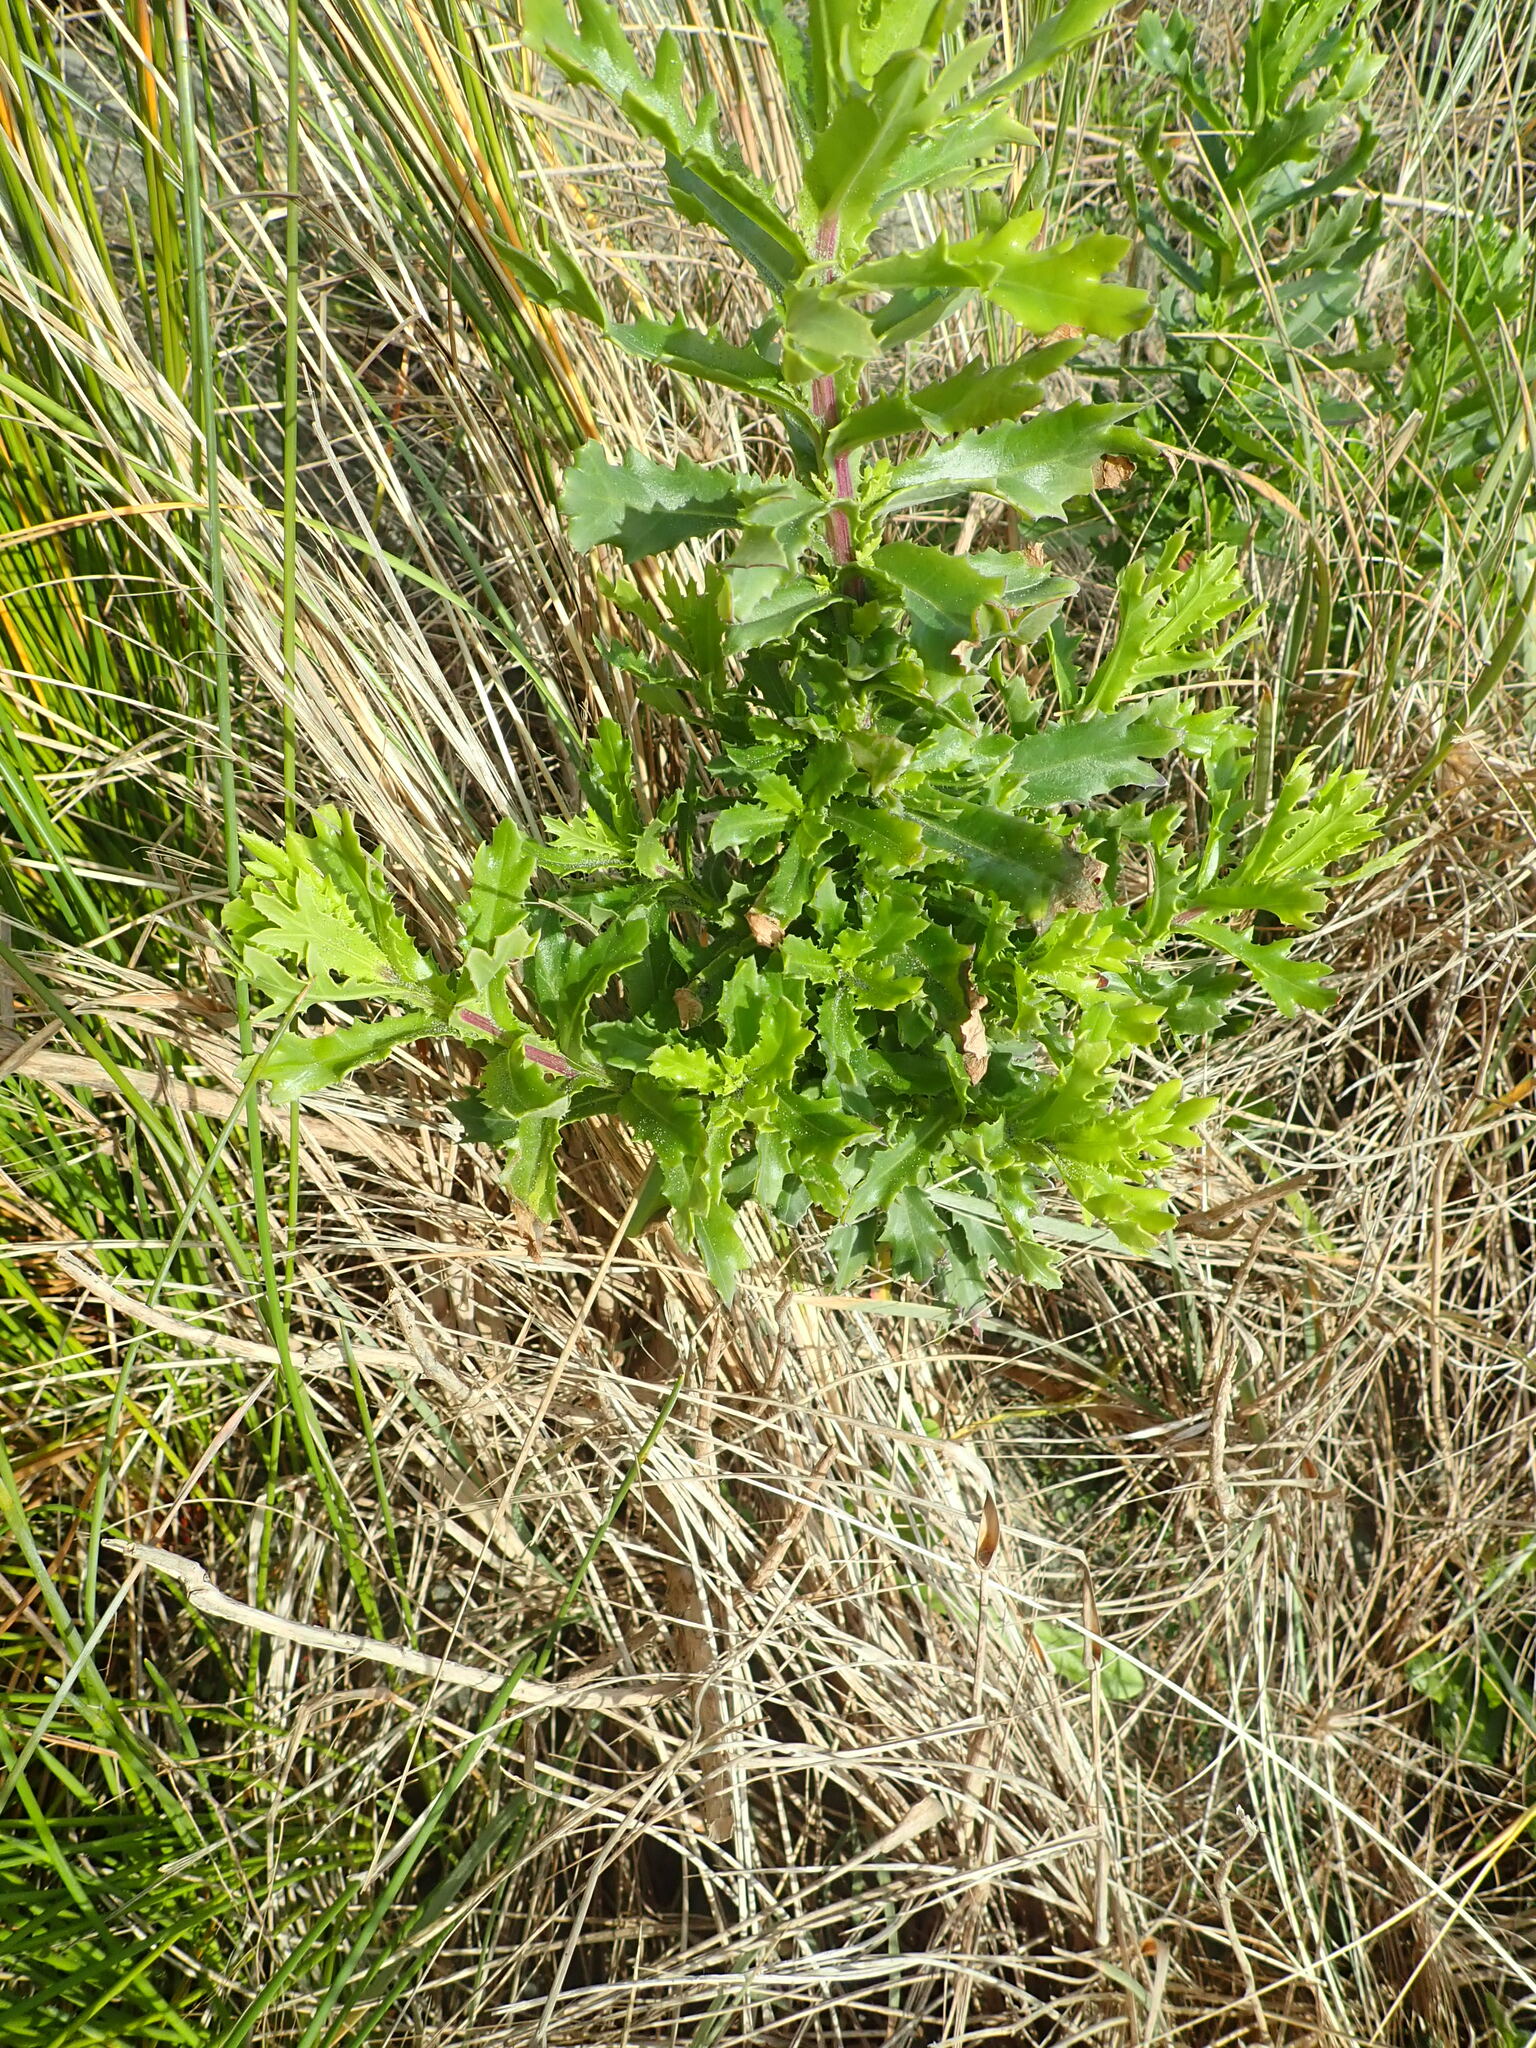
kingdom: Plantae
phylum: Tracheophyta
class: Magnoliopsida
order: Asterales
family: Asteraceae
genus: Senecio
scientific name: Senecio glastifolius
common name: Woad-leaved ragwort
